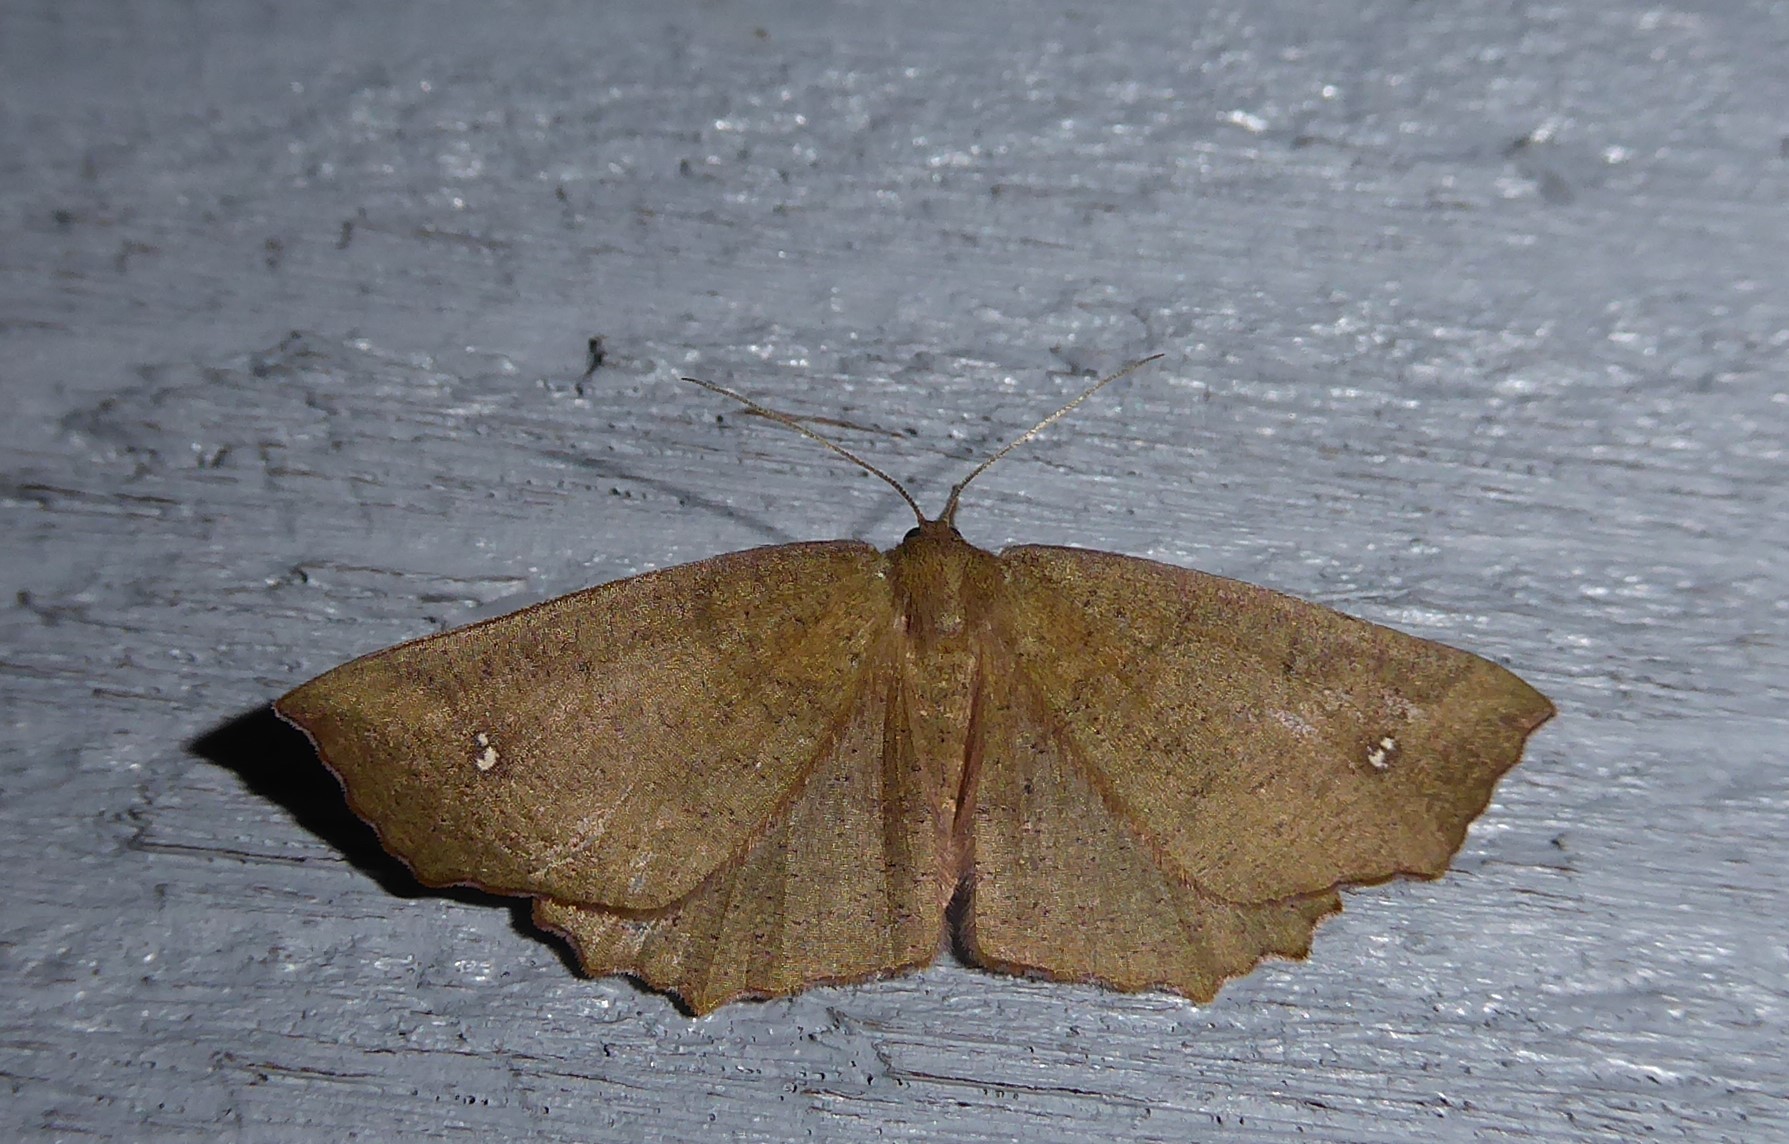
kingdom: Animalia
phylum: Arthropoda
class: Insecta
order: Lepidoptera
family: Geometridae
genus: Xyridacma
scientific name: Xyridacma ustaria
